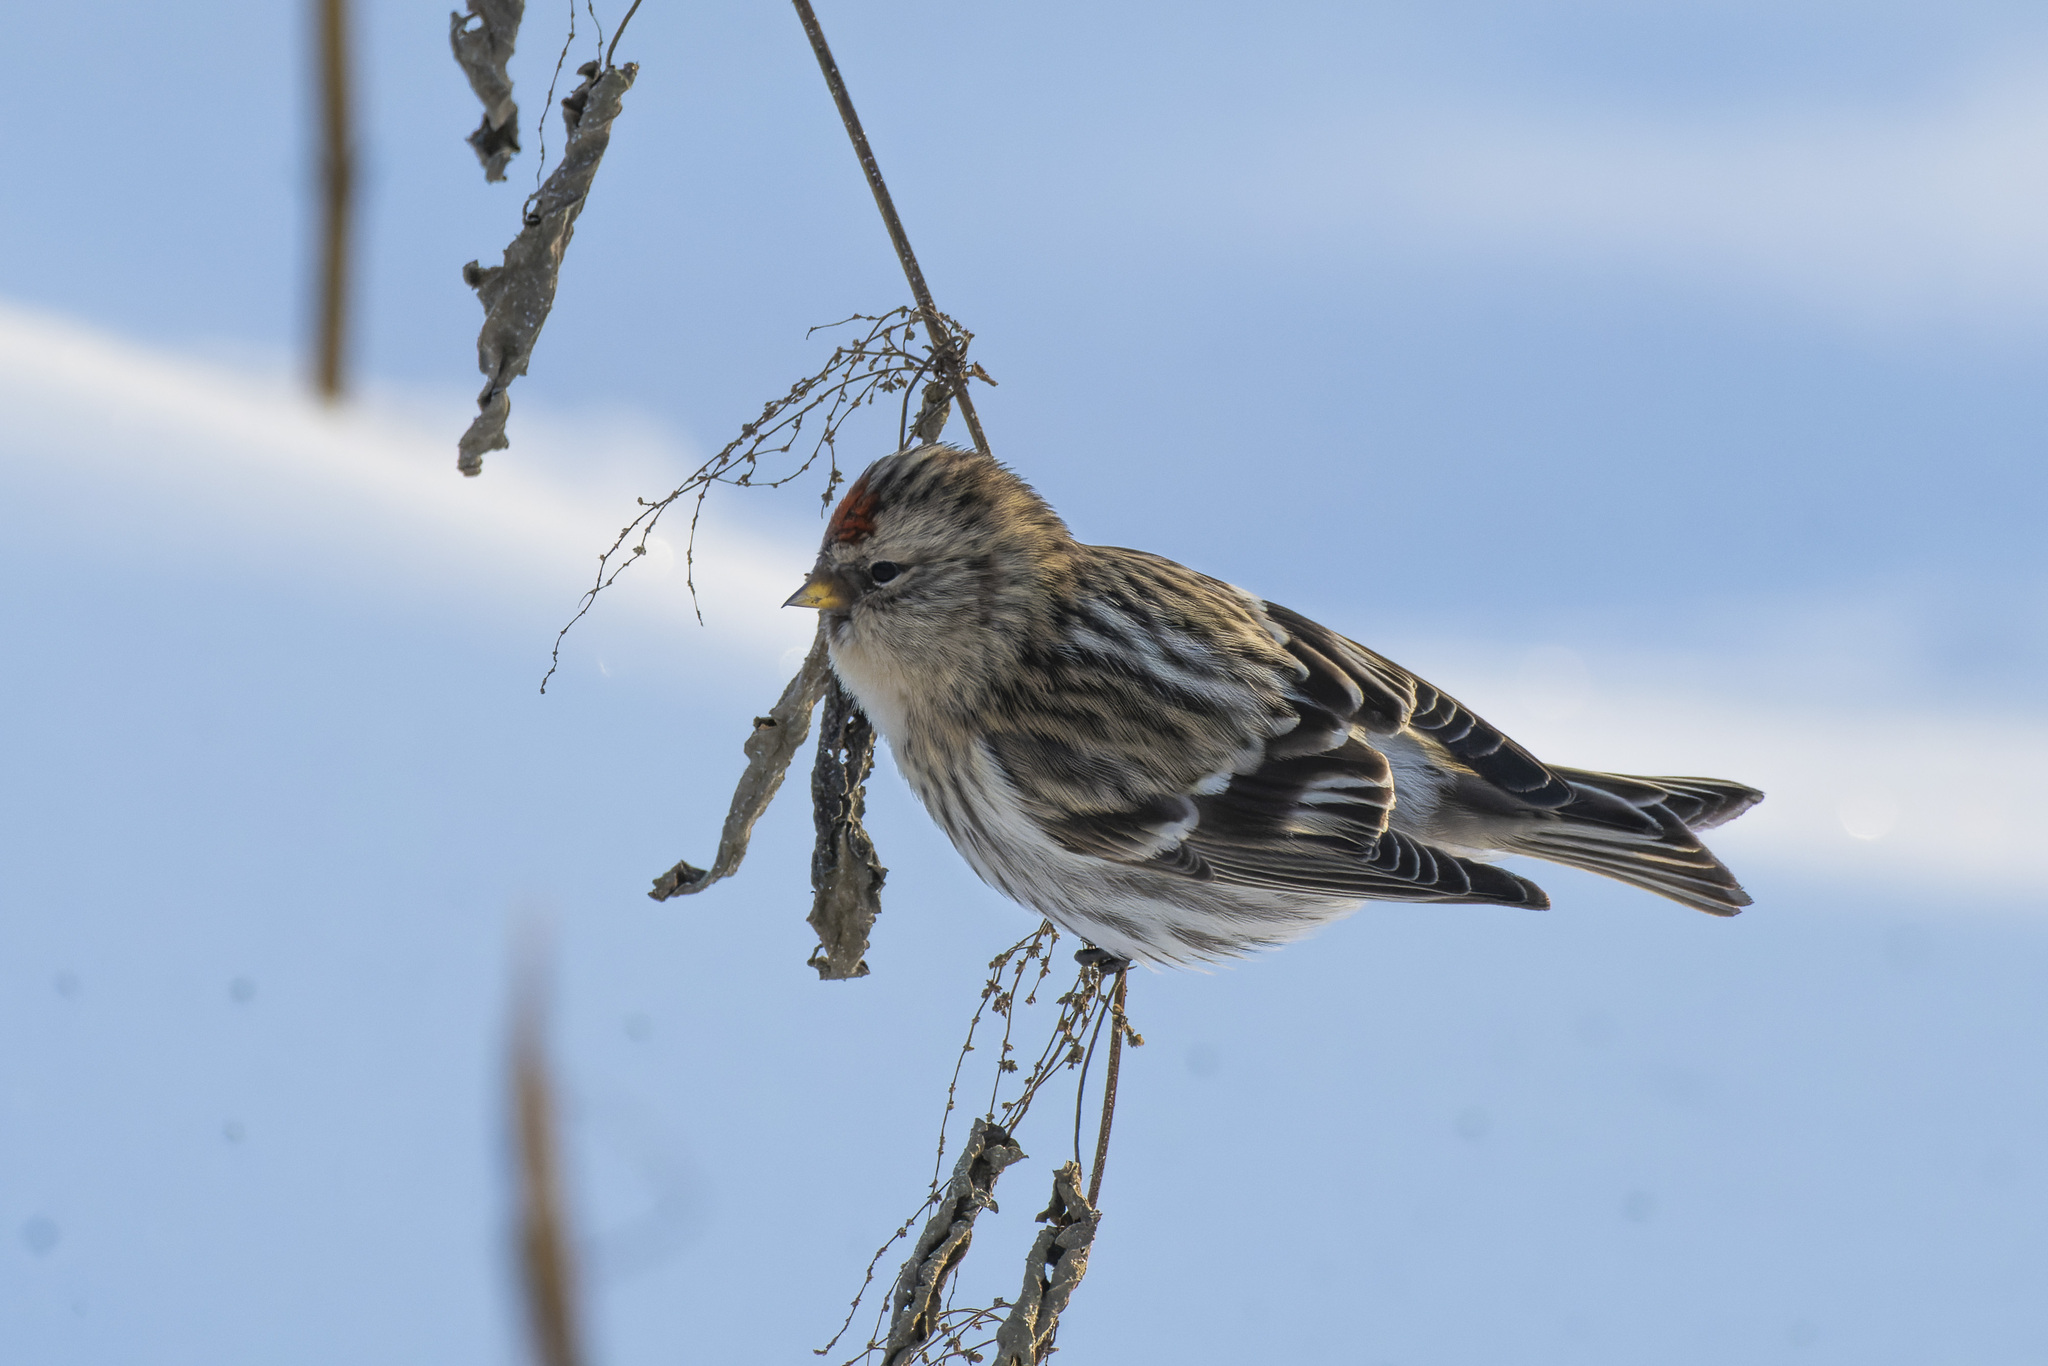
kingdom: Animalia
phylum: Chordata
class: Aves
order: Passeriformes
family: Fringillidae
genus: Acanthis
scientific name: Acanthis flammea
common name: Common redpoll
